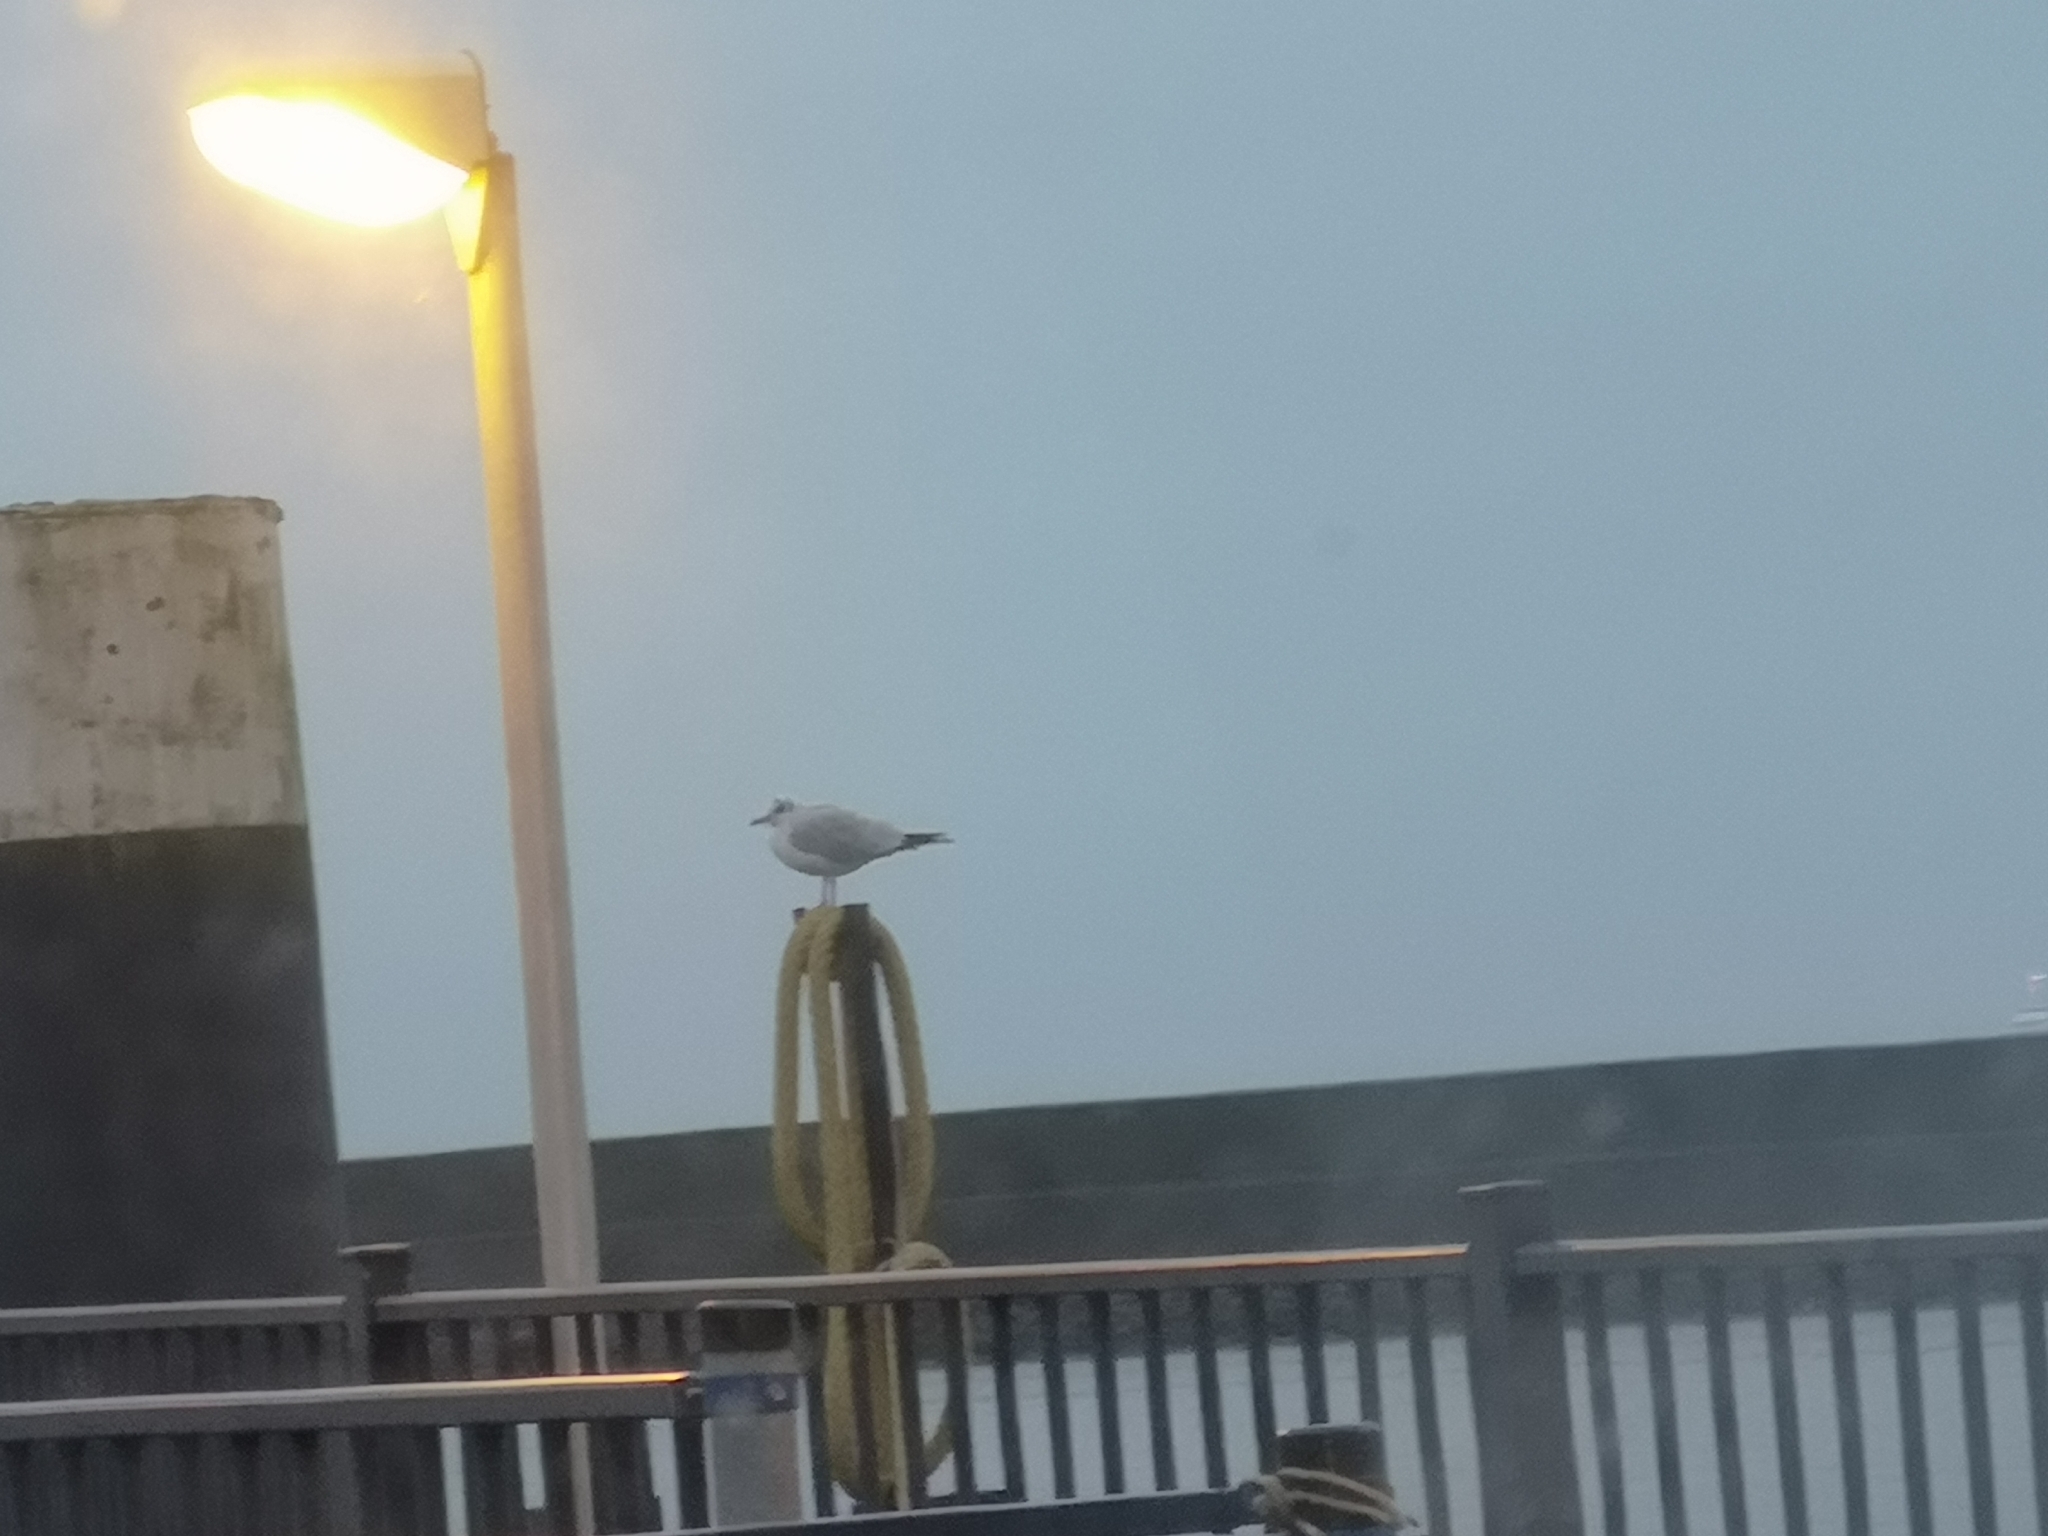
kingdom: Animalia
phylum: Chordata
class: Aves
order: Charadriiformes
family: Laridae
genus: Chroicocephalus
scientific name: Chroicocephalus ridibundus
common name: Black-headed gull
